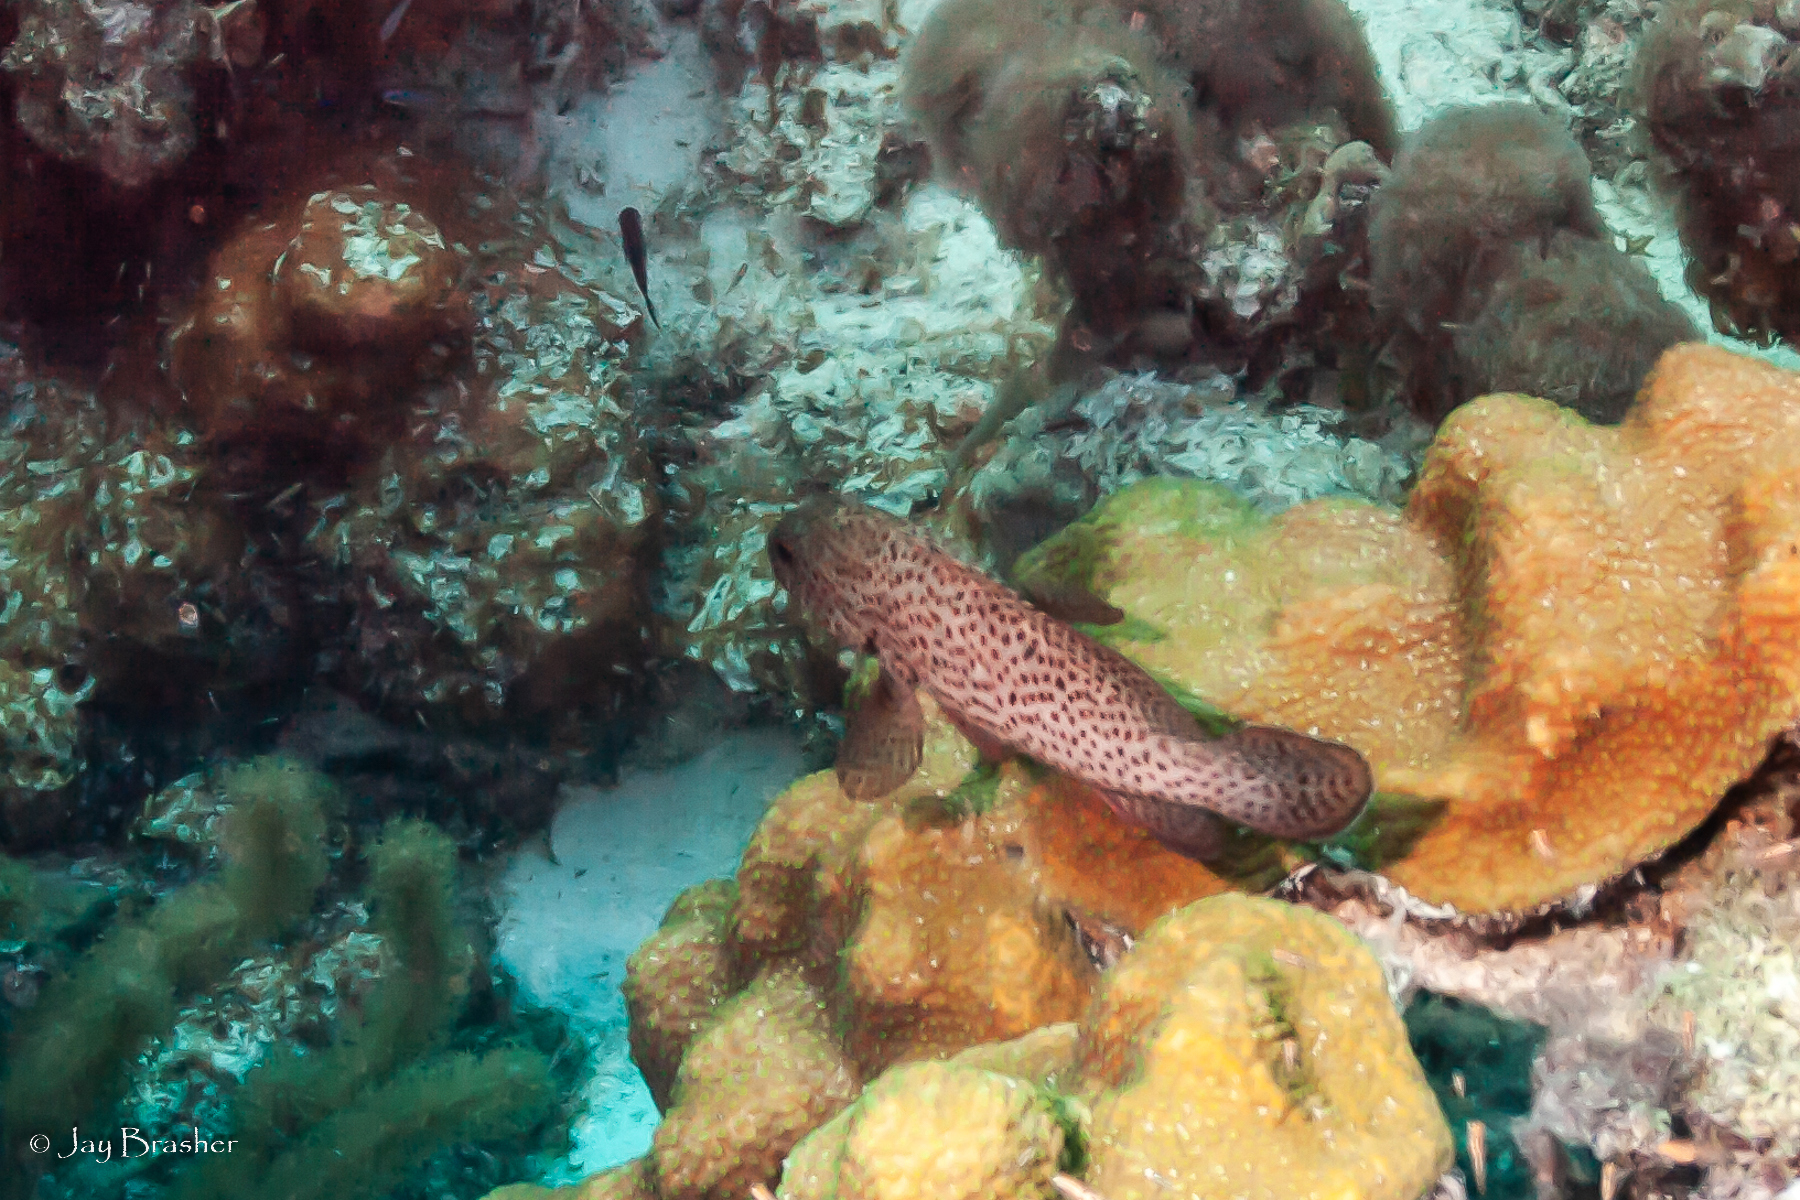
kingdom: Animalia
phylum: Chordata
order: Perciformes
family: Serranidae
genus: Cephalopholis
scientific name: Cephalopholis cruentata
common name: Graysby
